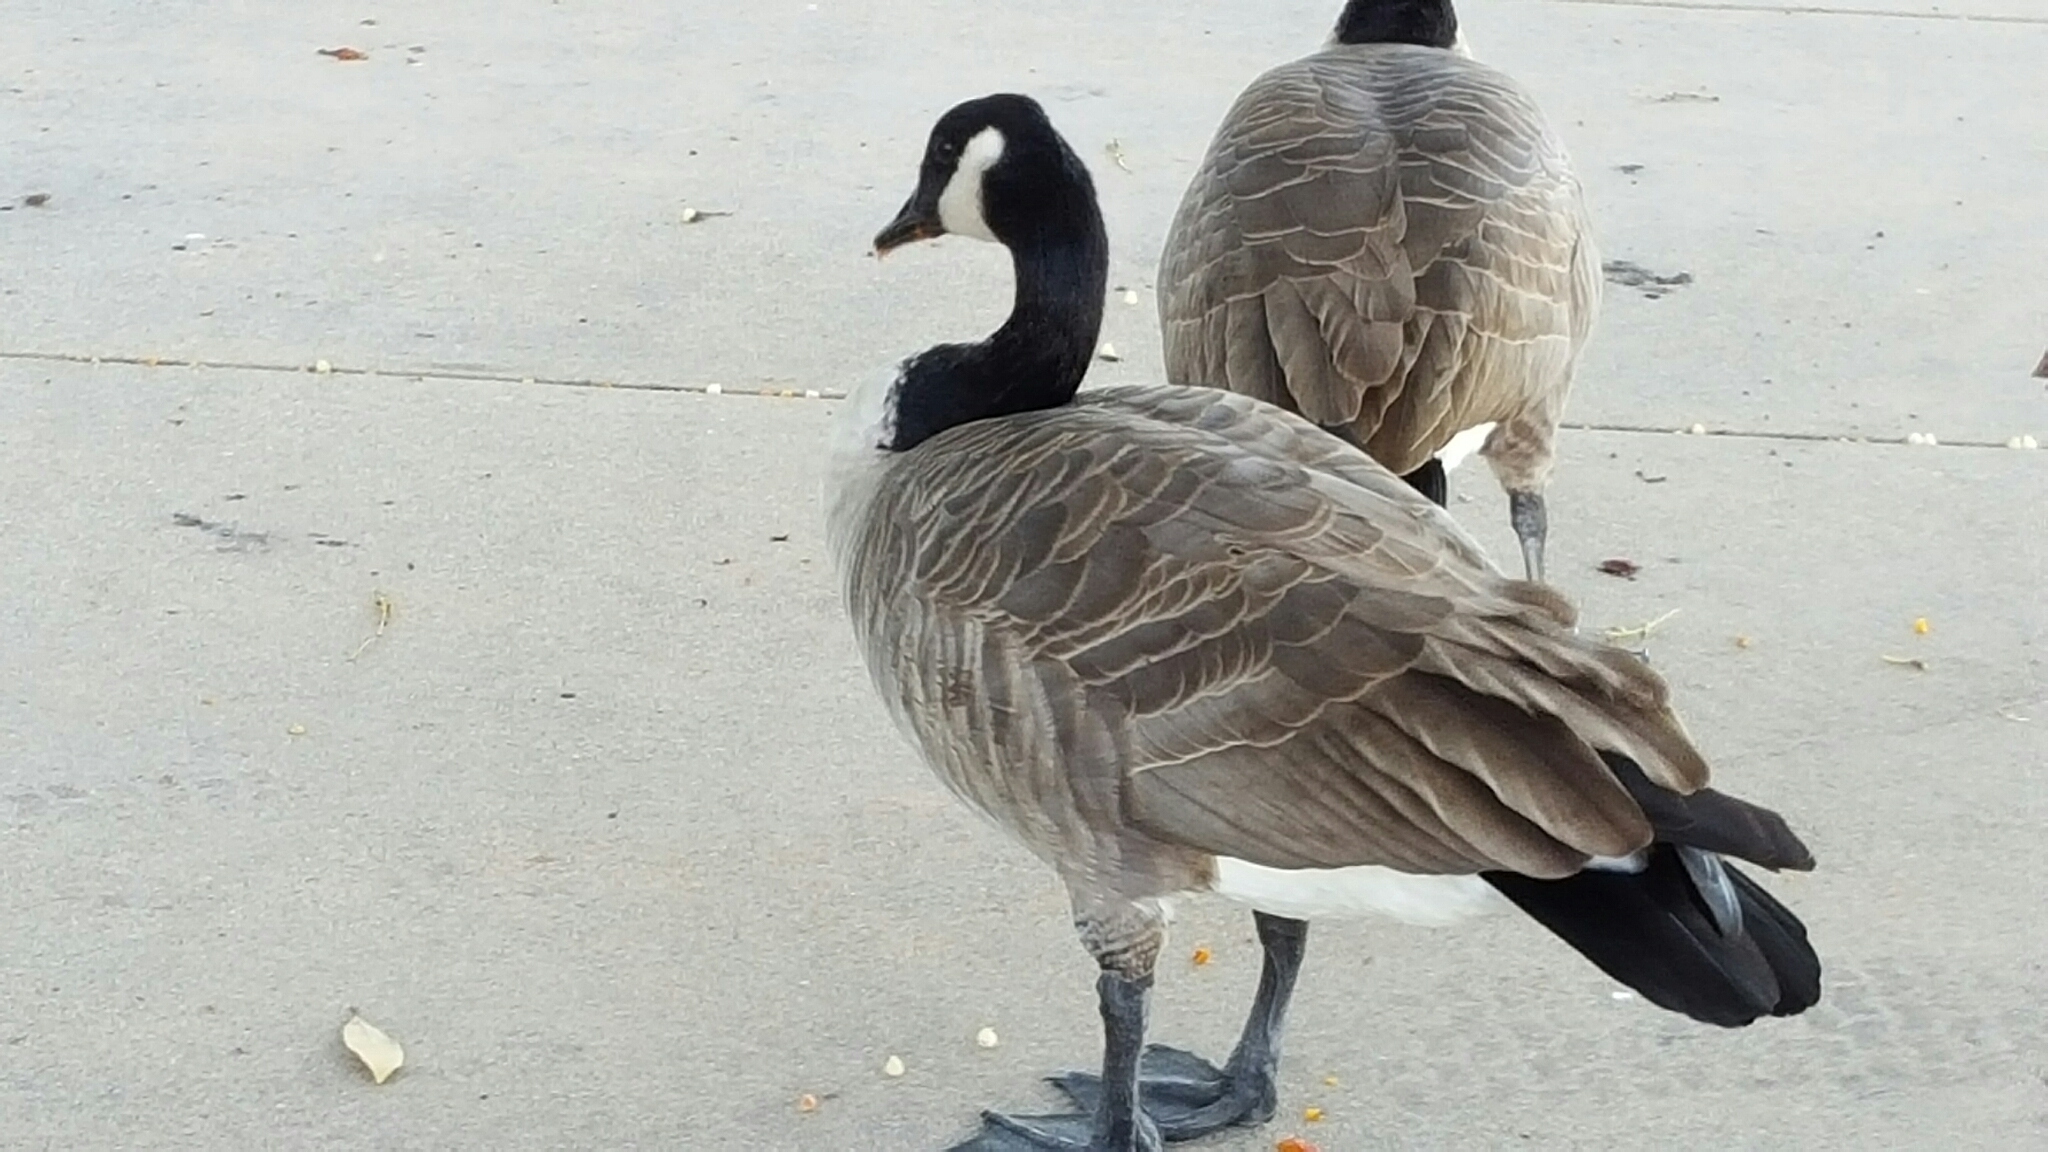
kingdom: Animalia
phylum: Chordata
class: Aves
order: Anseriformes
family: Anatidae
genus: Branta
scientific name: Branta canadensis
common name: Canada goose
